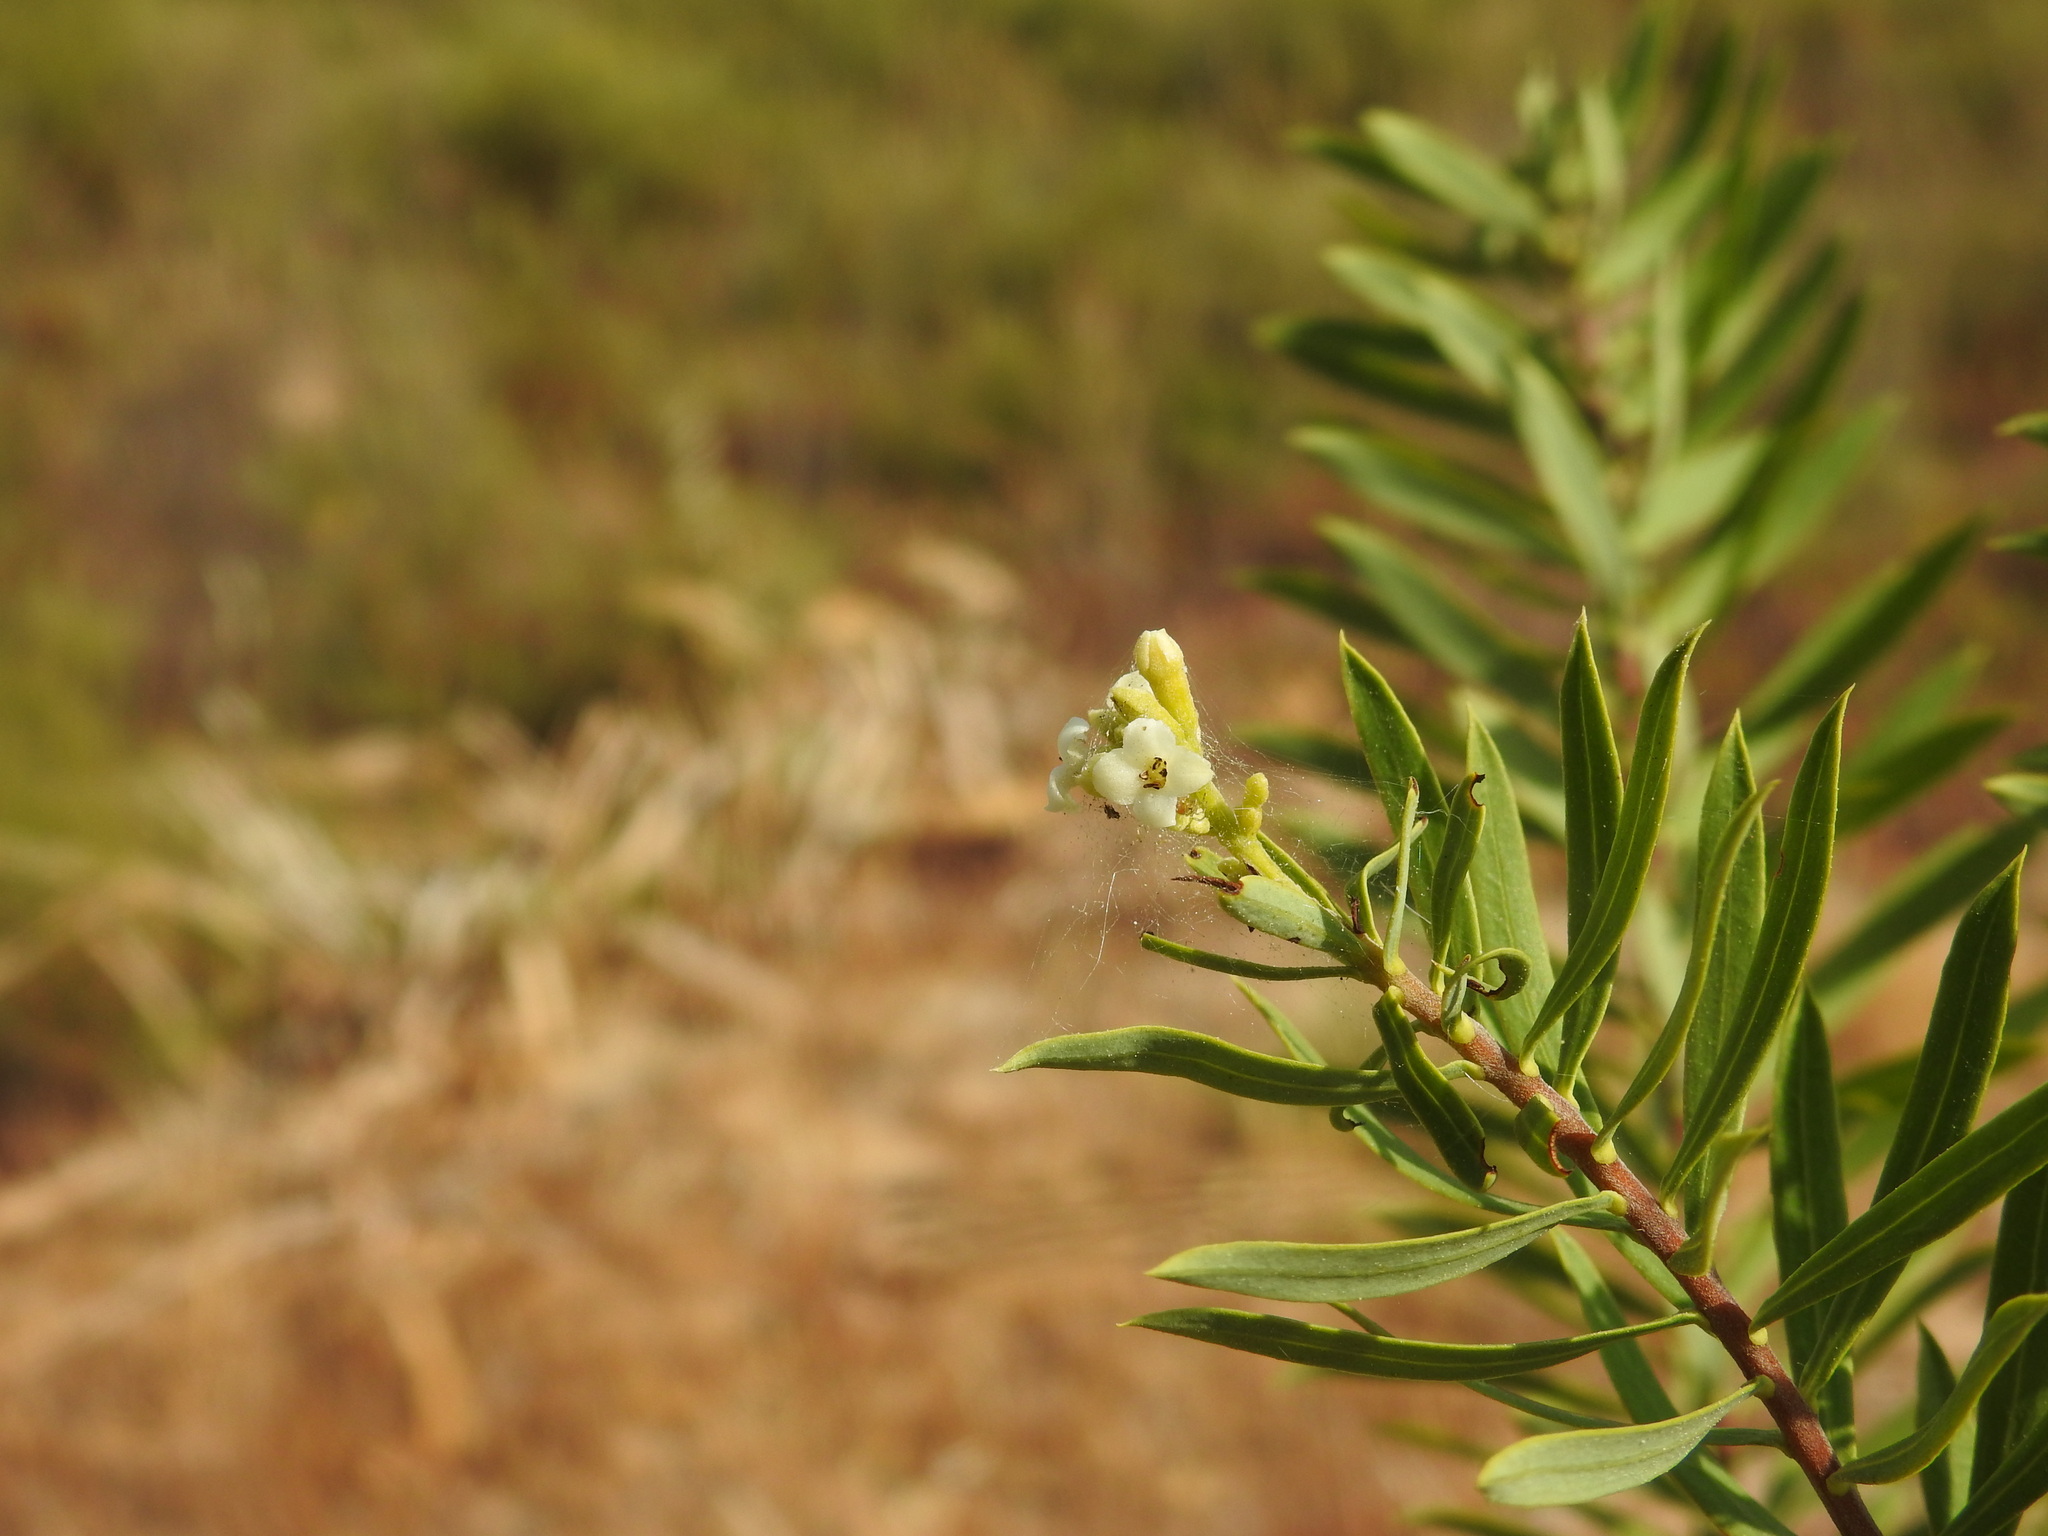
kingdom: Plantae
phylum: Tracheophyta
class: Magnoliopsida
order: Malvales
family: Thymelaeaceae
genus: Daphne
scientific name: Daphne gnidium
